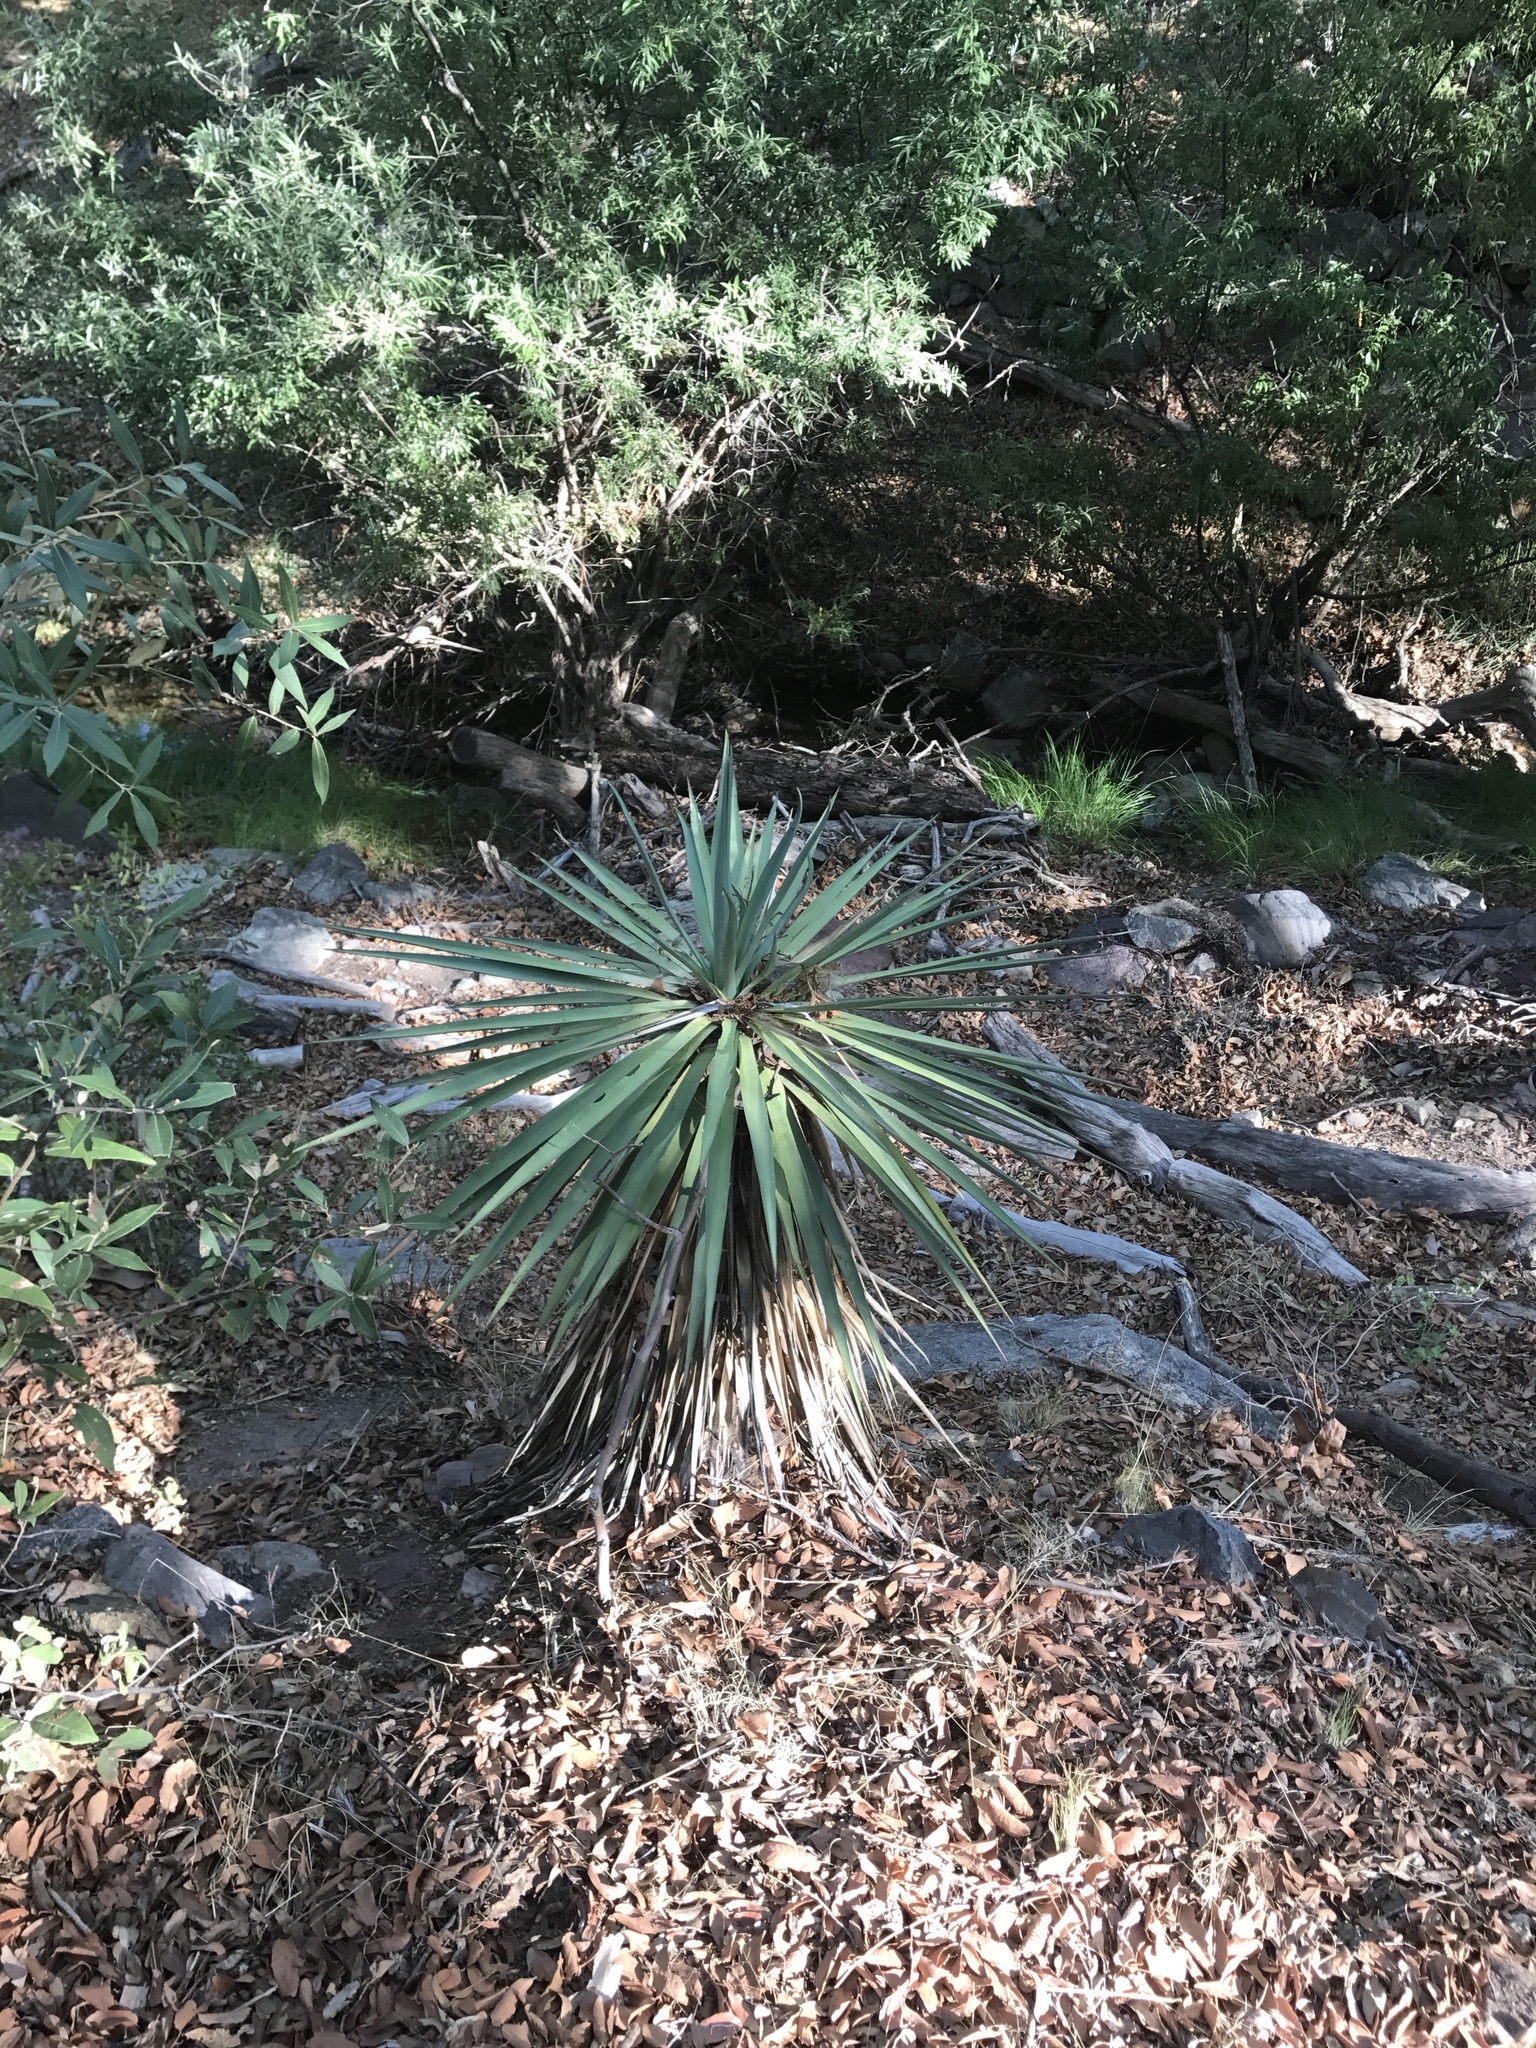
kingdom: Plantae
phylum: Tracheophyta
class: Liliopsida
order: Asparagales
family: Asparagaceae
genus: Yucca
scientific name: Yucca madrensis
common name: Hoary yucca
